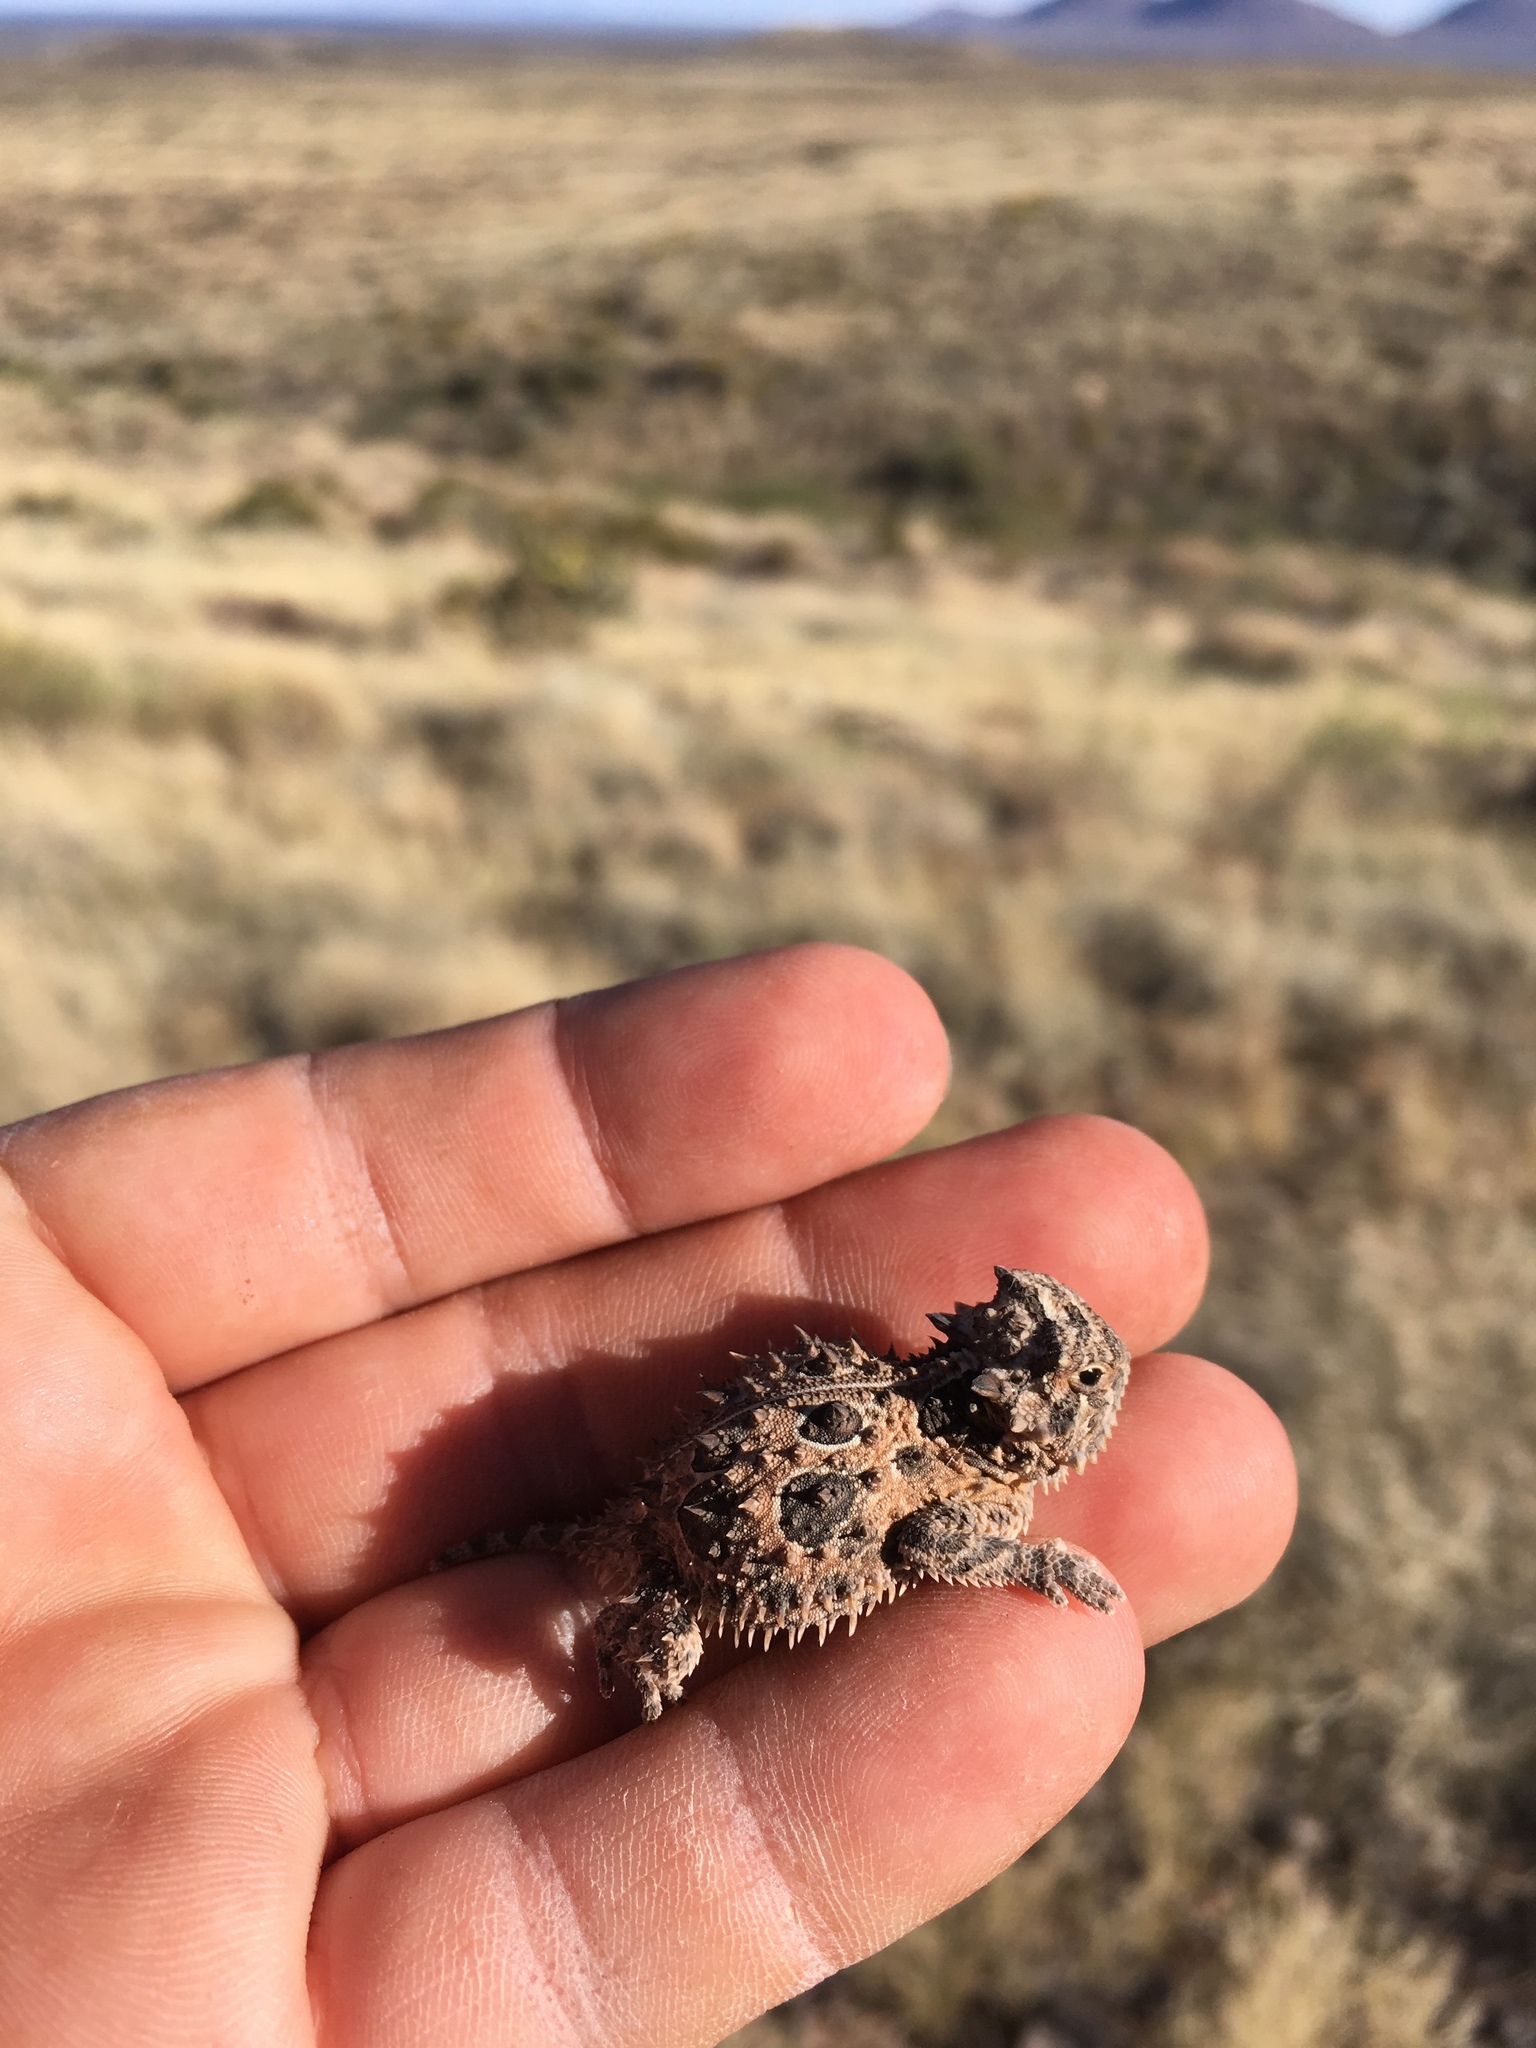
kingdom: Animalia
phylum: Chordata
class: Squamata
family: Phrynosomatidae
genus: Phrynosoma
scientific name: Phrynosoma cornutum
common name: Texas horned lizard
